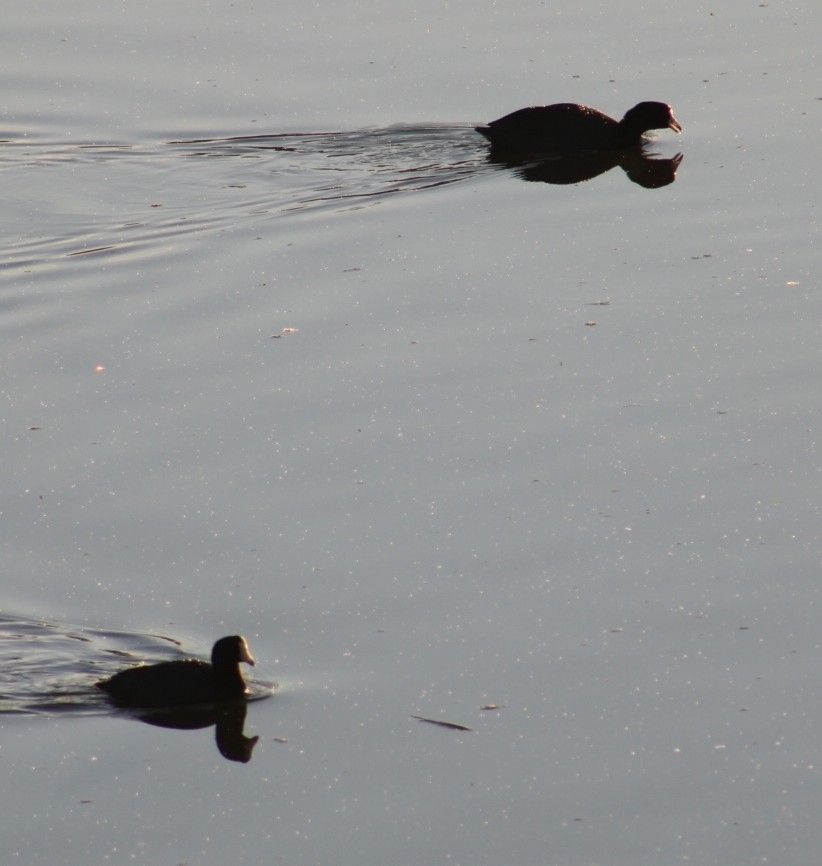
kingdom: Animalia
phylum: Chordata
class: Aves
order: Gruiformes
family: Rallidae
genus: Fulica
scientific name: Fulica americana
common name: American coot
